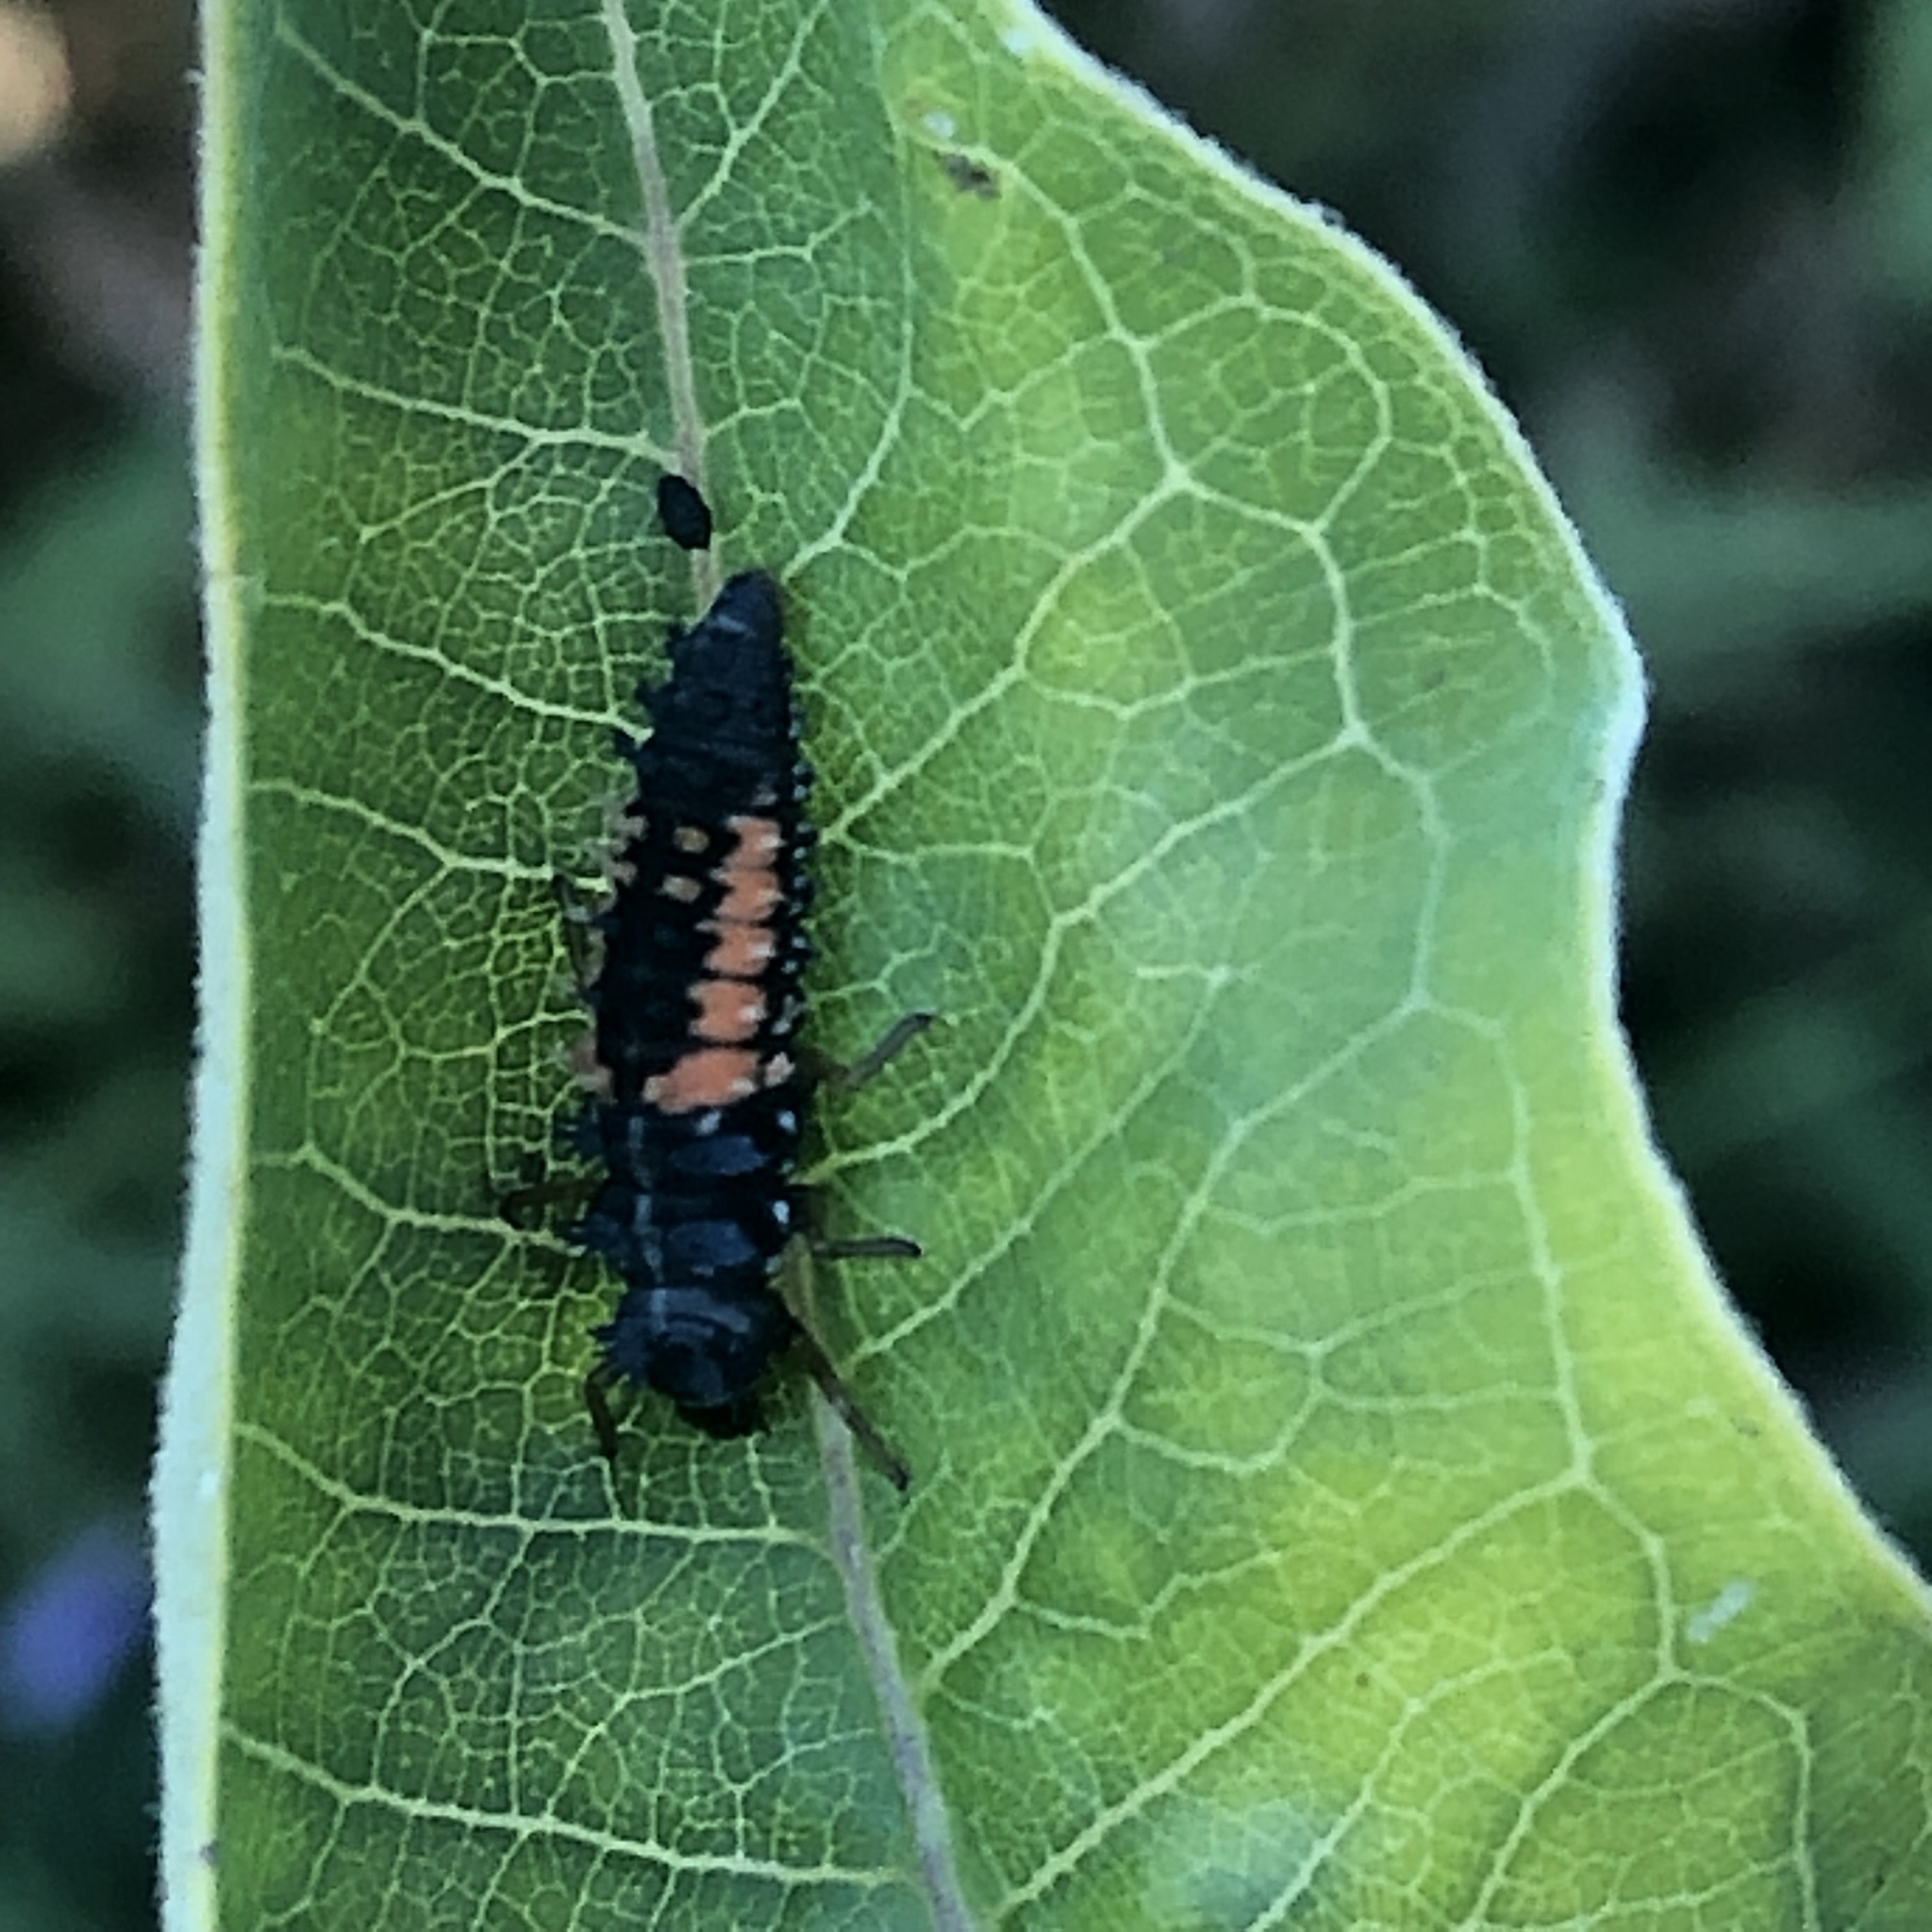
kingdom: Animalia
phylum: Arthropoda
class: Insecta
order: Coleoptera
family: Coccinellidae
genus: Harmonia
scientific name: Harmonia axyridis
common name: Harlequin ladybird
